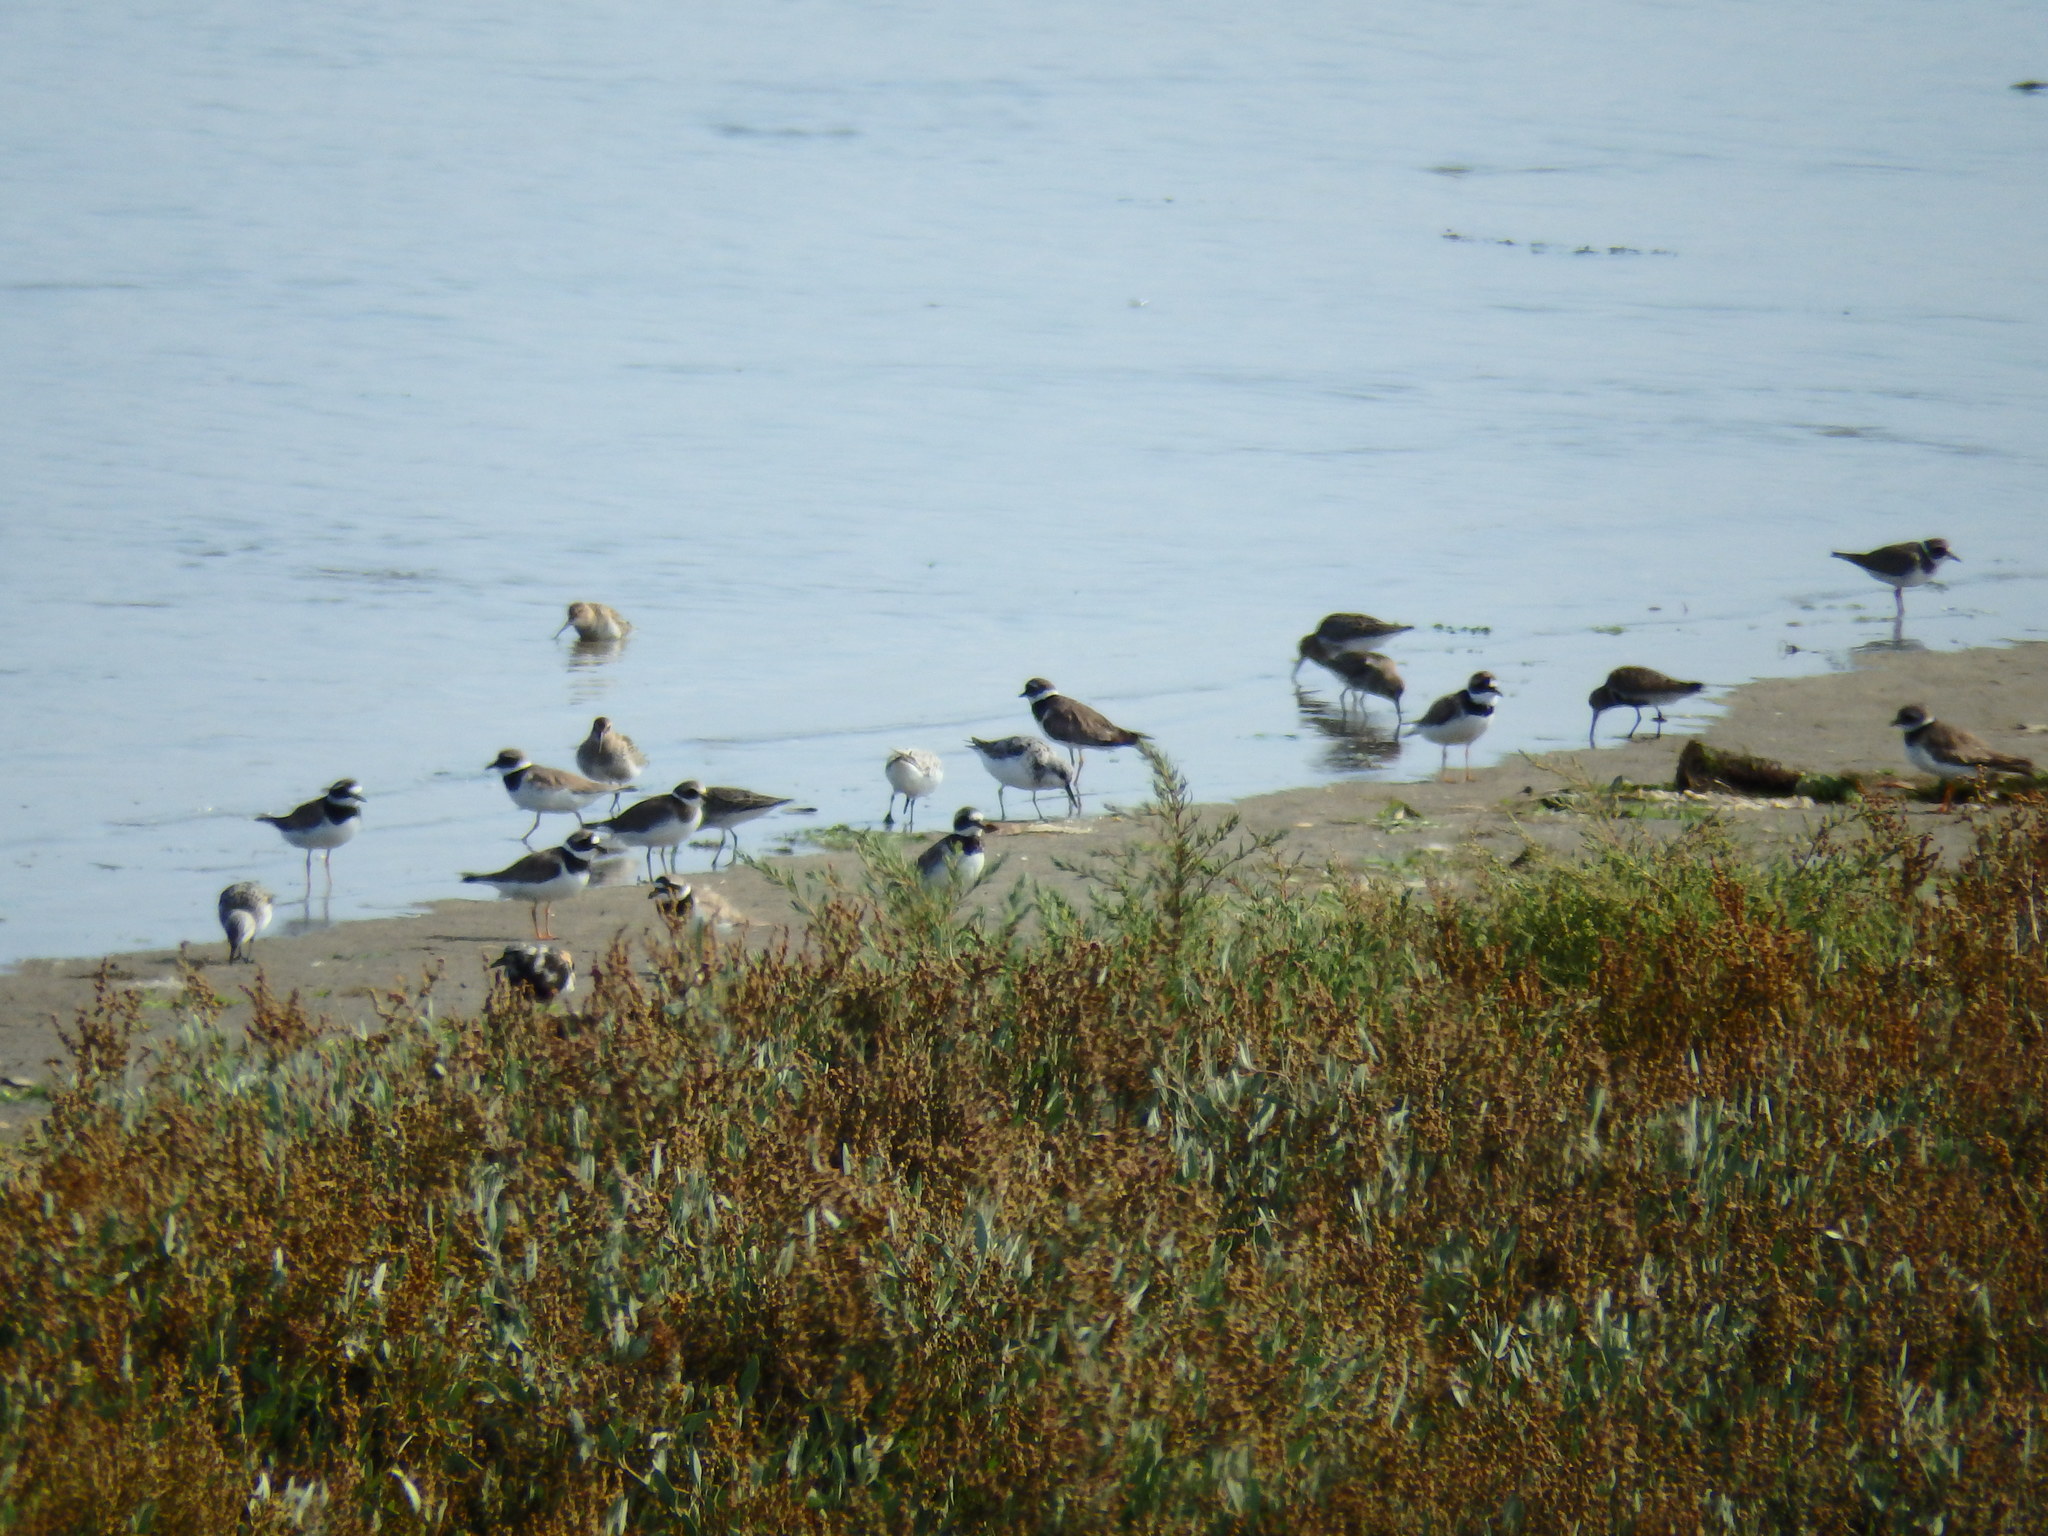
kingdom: Animalia
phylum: Chordata
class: Aves
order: Charadriiformes
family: Charadriidae
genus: Charadrius
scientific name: Charadrius hiaticula
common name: Common ringed plover
